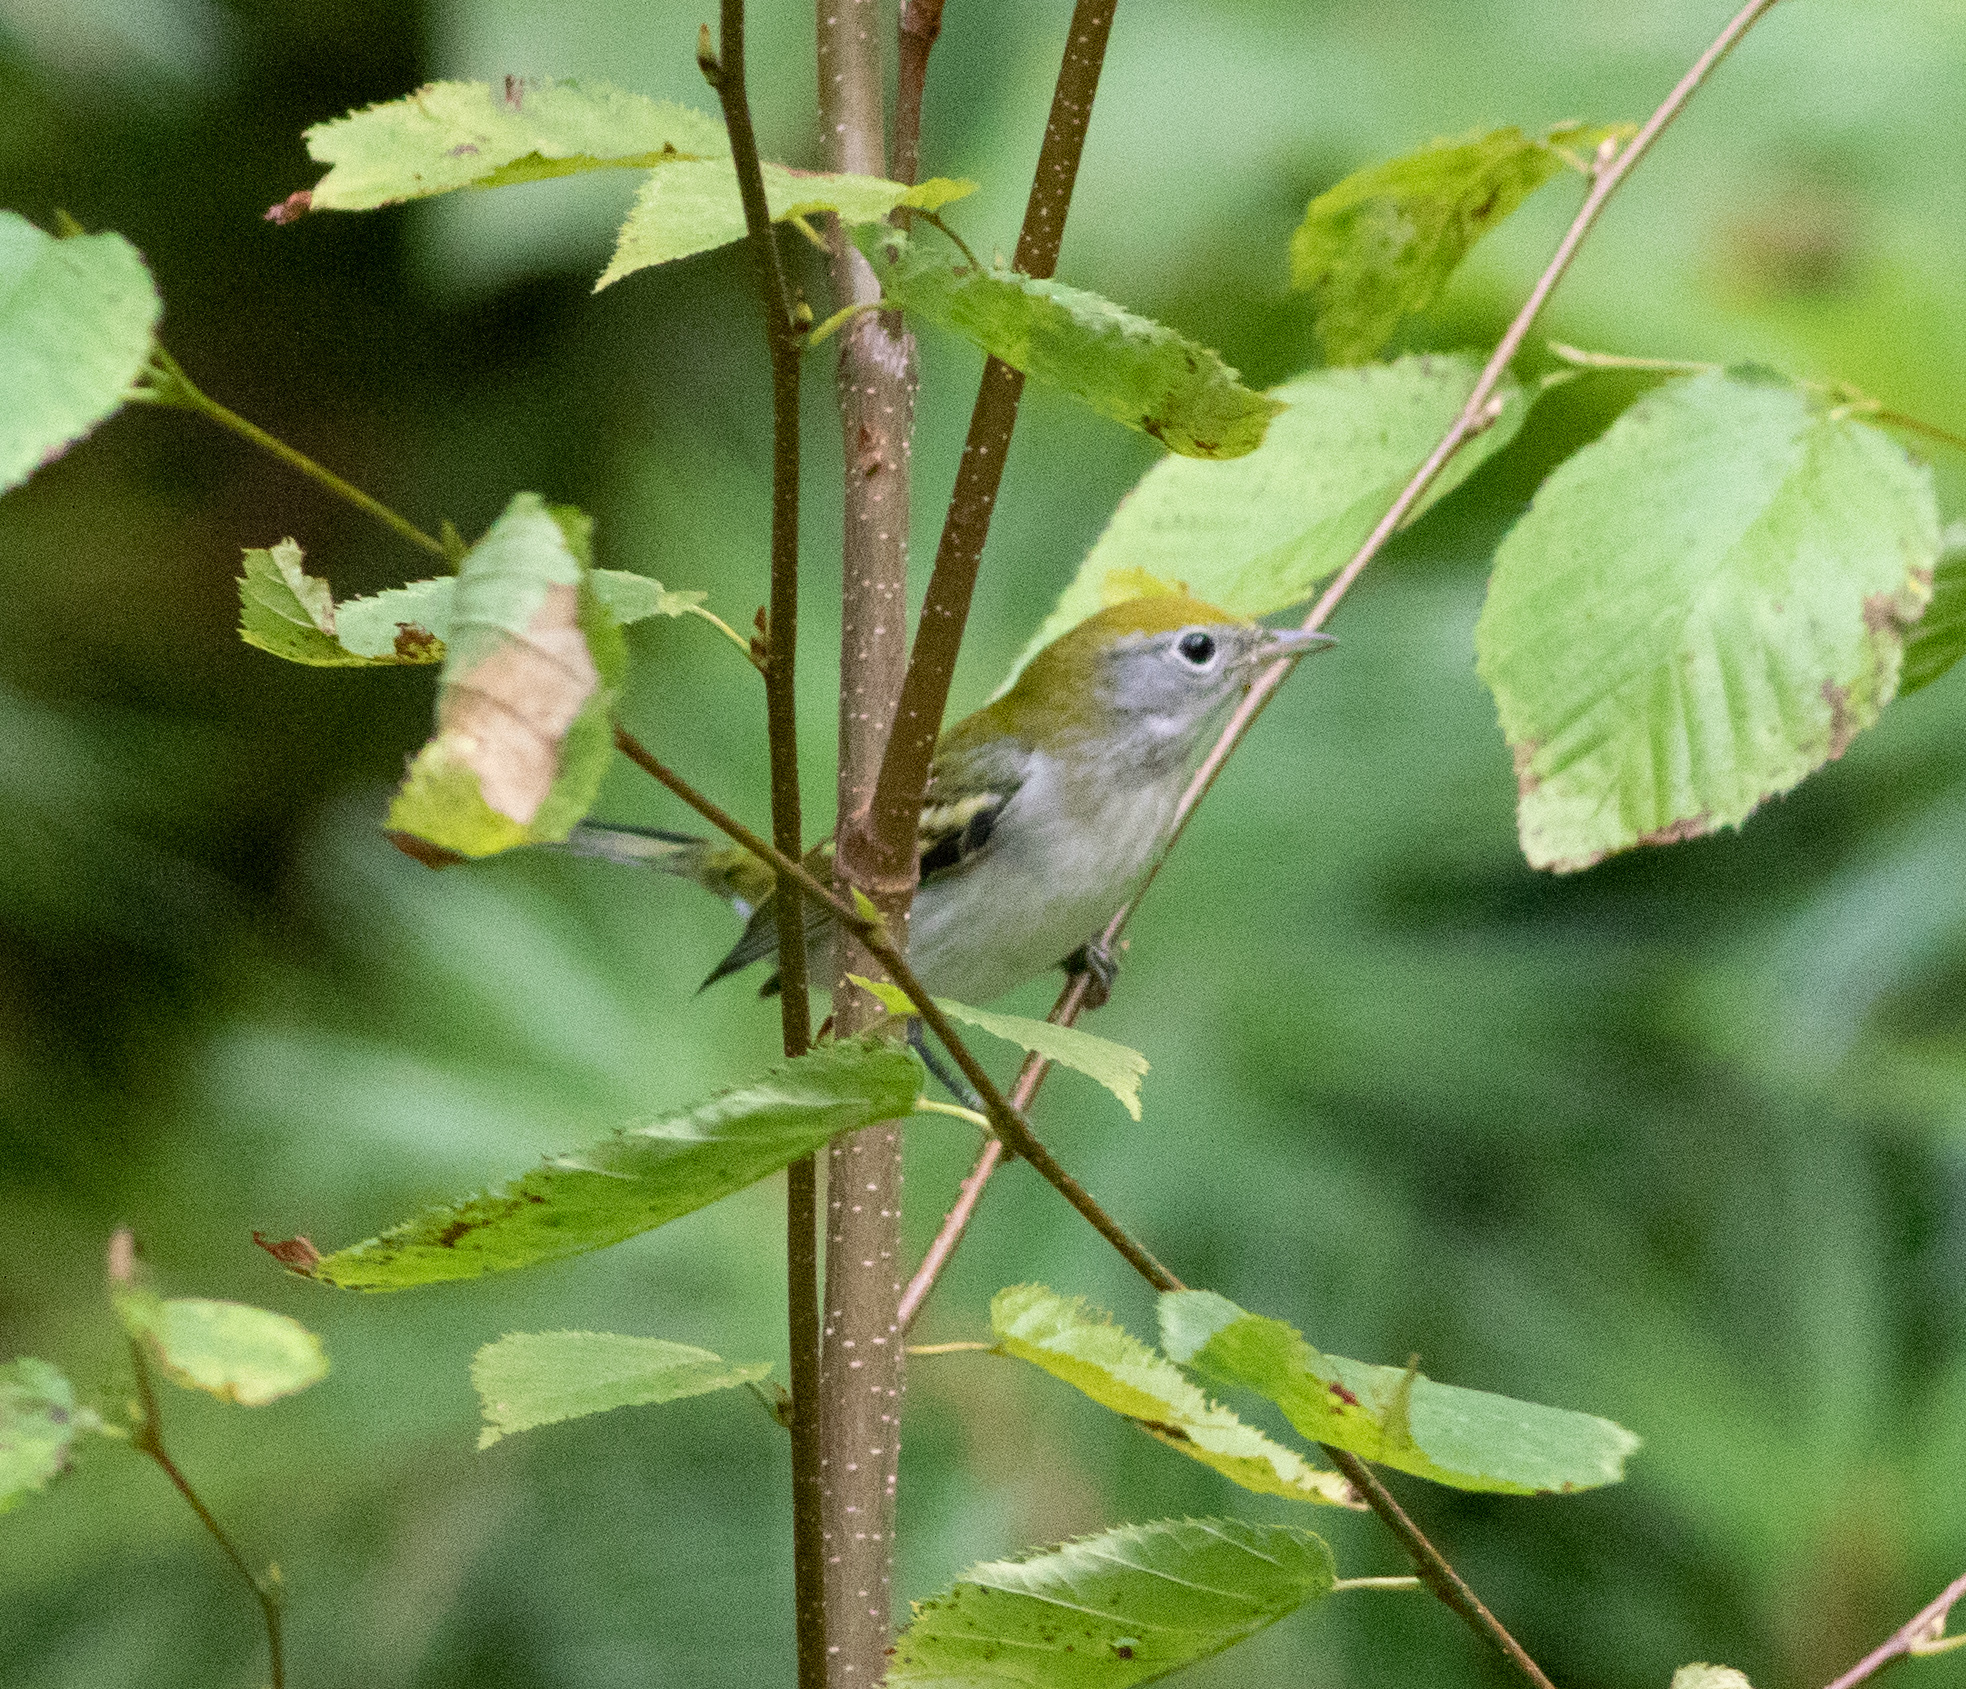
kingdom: Animalia
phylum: Chordata
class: Aves
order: Passeriformes
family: Parulidae
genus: Setophaga
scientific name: Setophaga pensylvanica
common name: Chestnut-sided warbler
